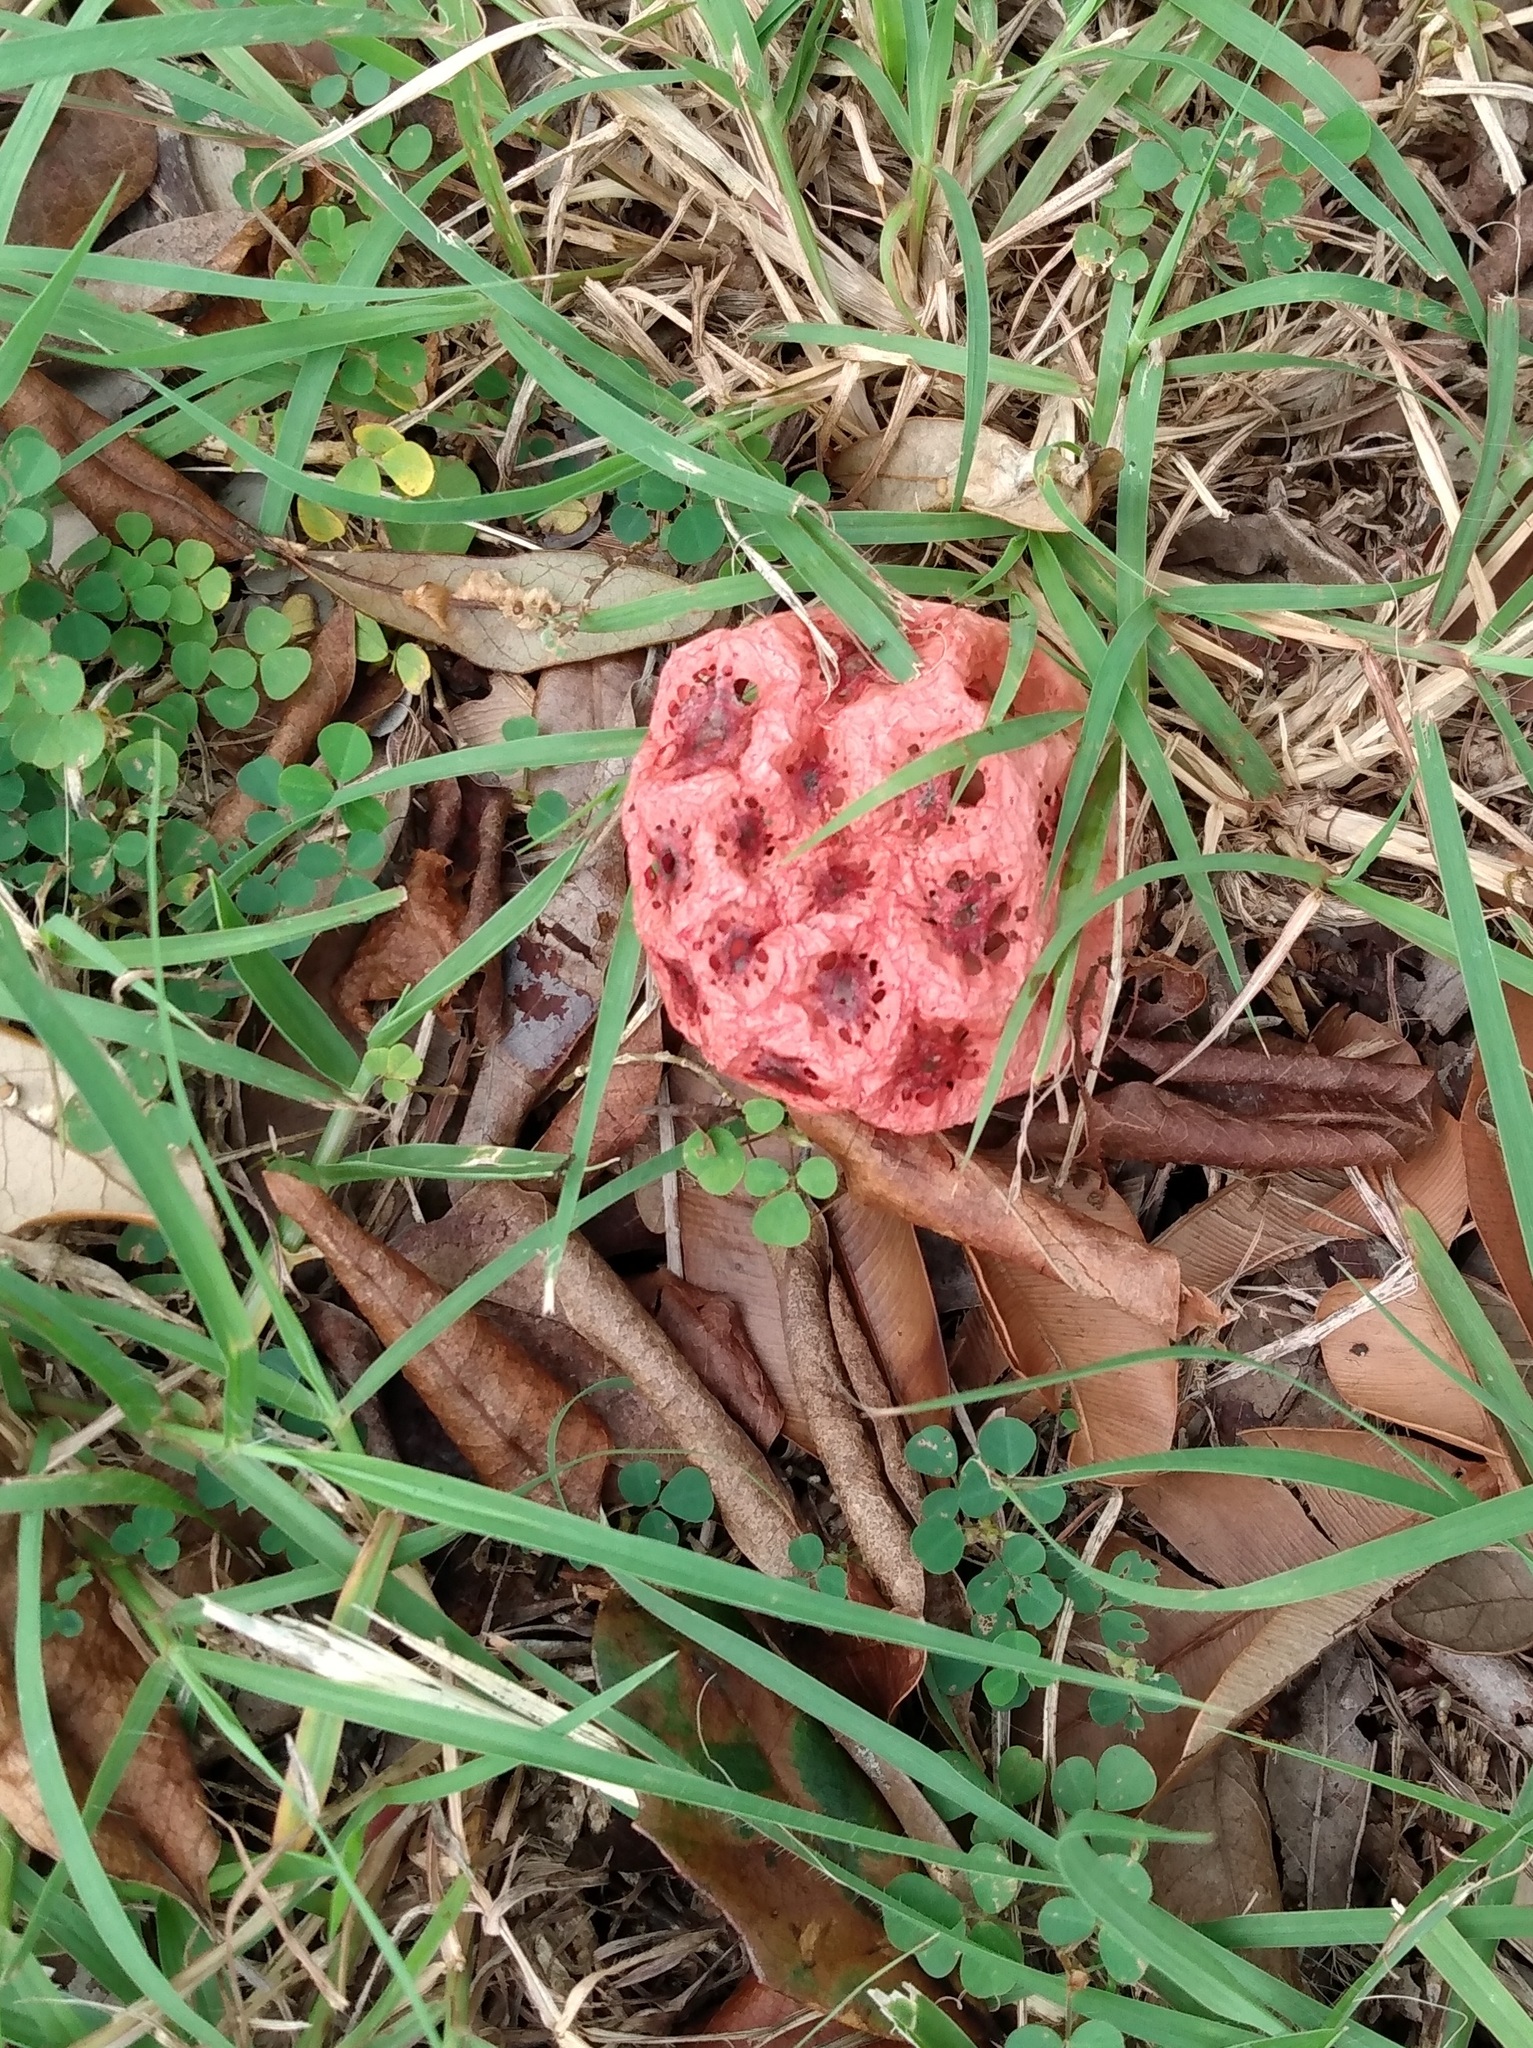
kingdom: Fungi
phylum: Basidiomycota
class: Agaricomycetes
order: Phallales
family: Phallaceae
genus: Clathrus
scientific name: Clathrus crispatus
